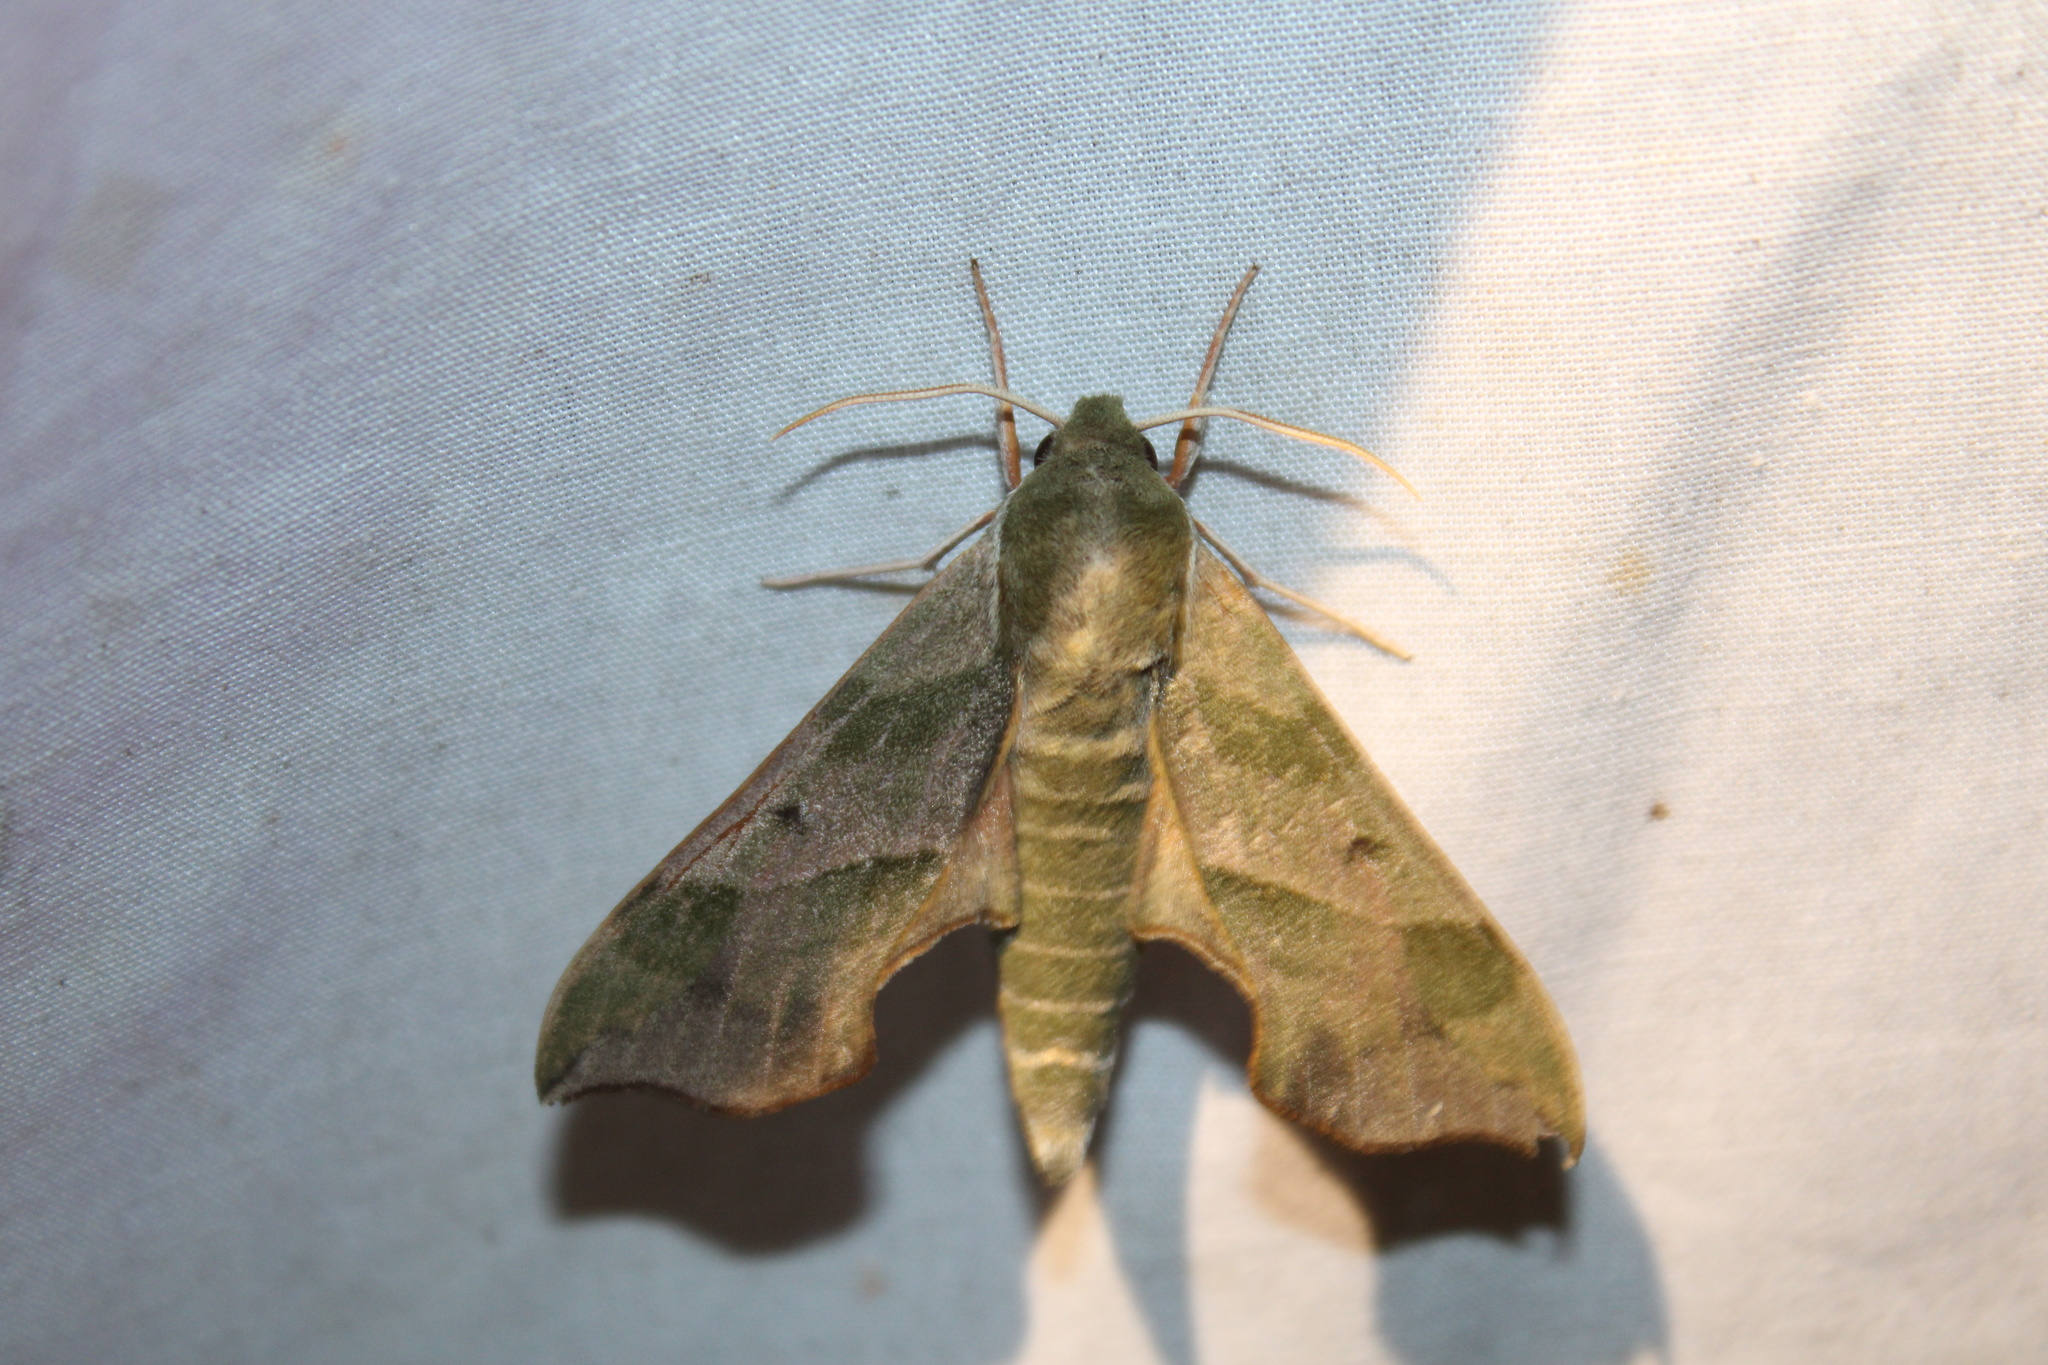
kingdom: Animalia
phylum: Arthropoda
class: Insecta
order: Lepidoptera
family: Sphingidae
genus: Darapsa
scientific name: Darapsa myron
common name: Hog sphinx
